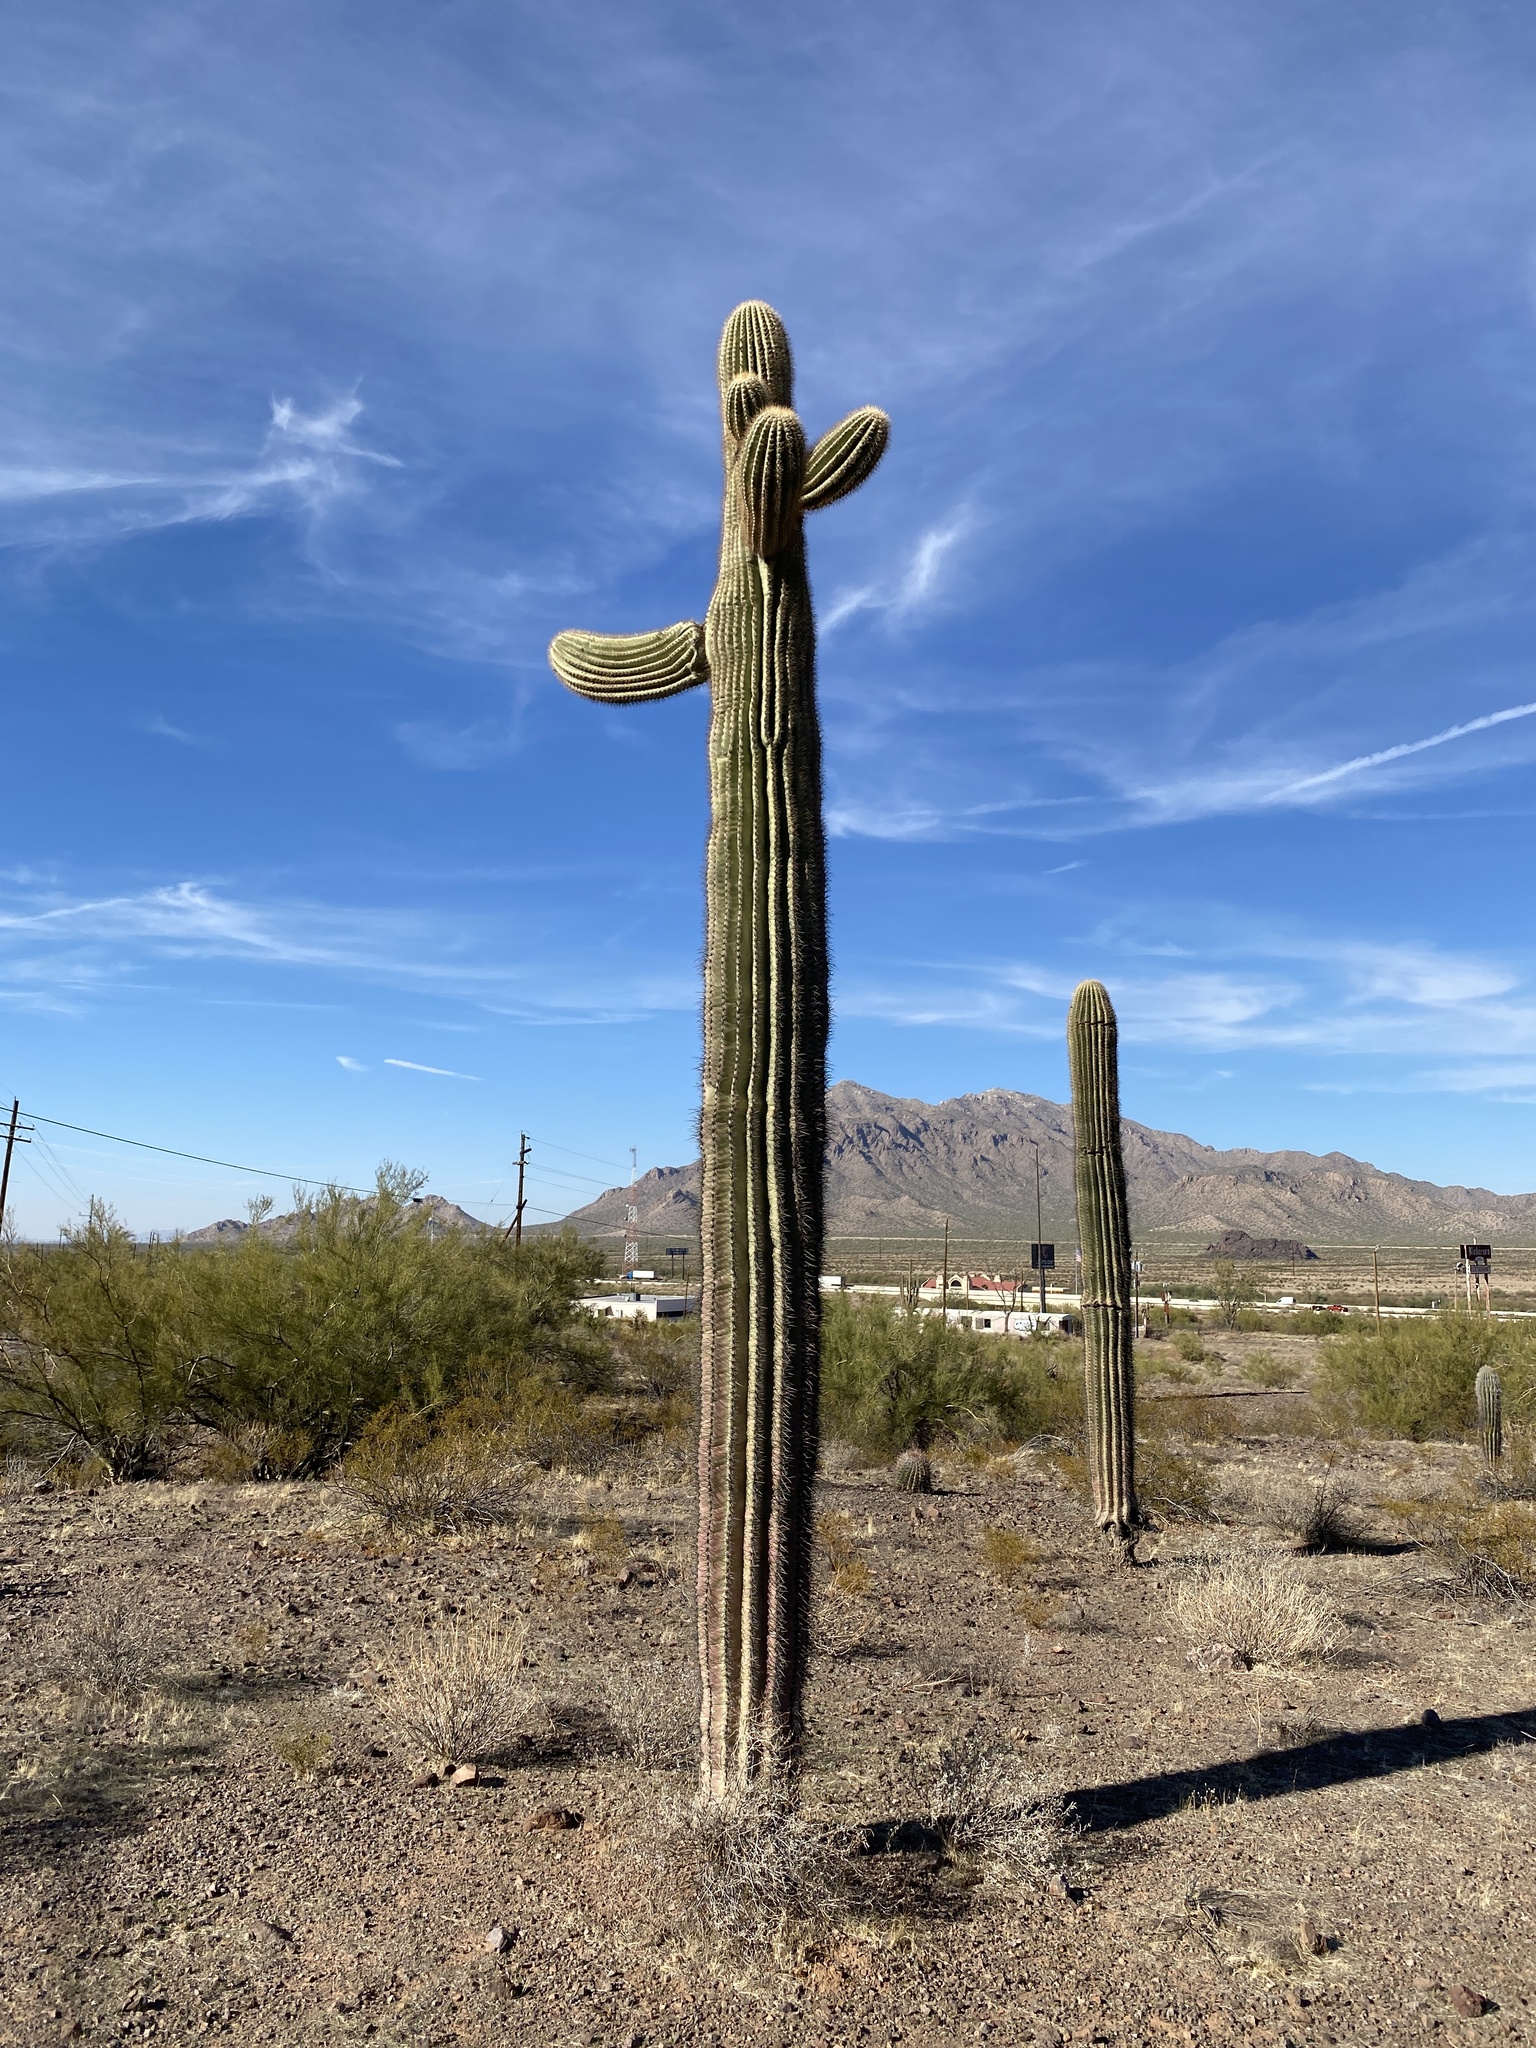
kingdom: Plantae
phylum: Tracheophyta
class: Magnoliopsida
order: Caryophyllales
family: Cactaceae
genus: Carnegiea
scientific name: Carnegiea gigantea
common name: Saguaro
